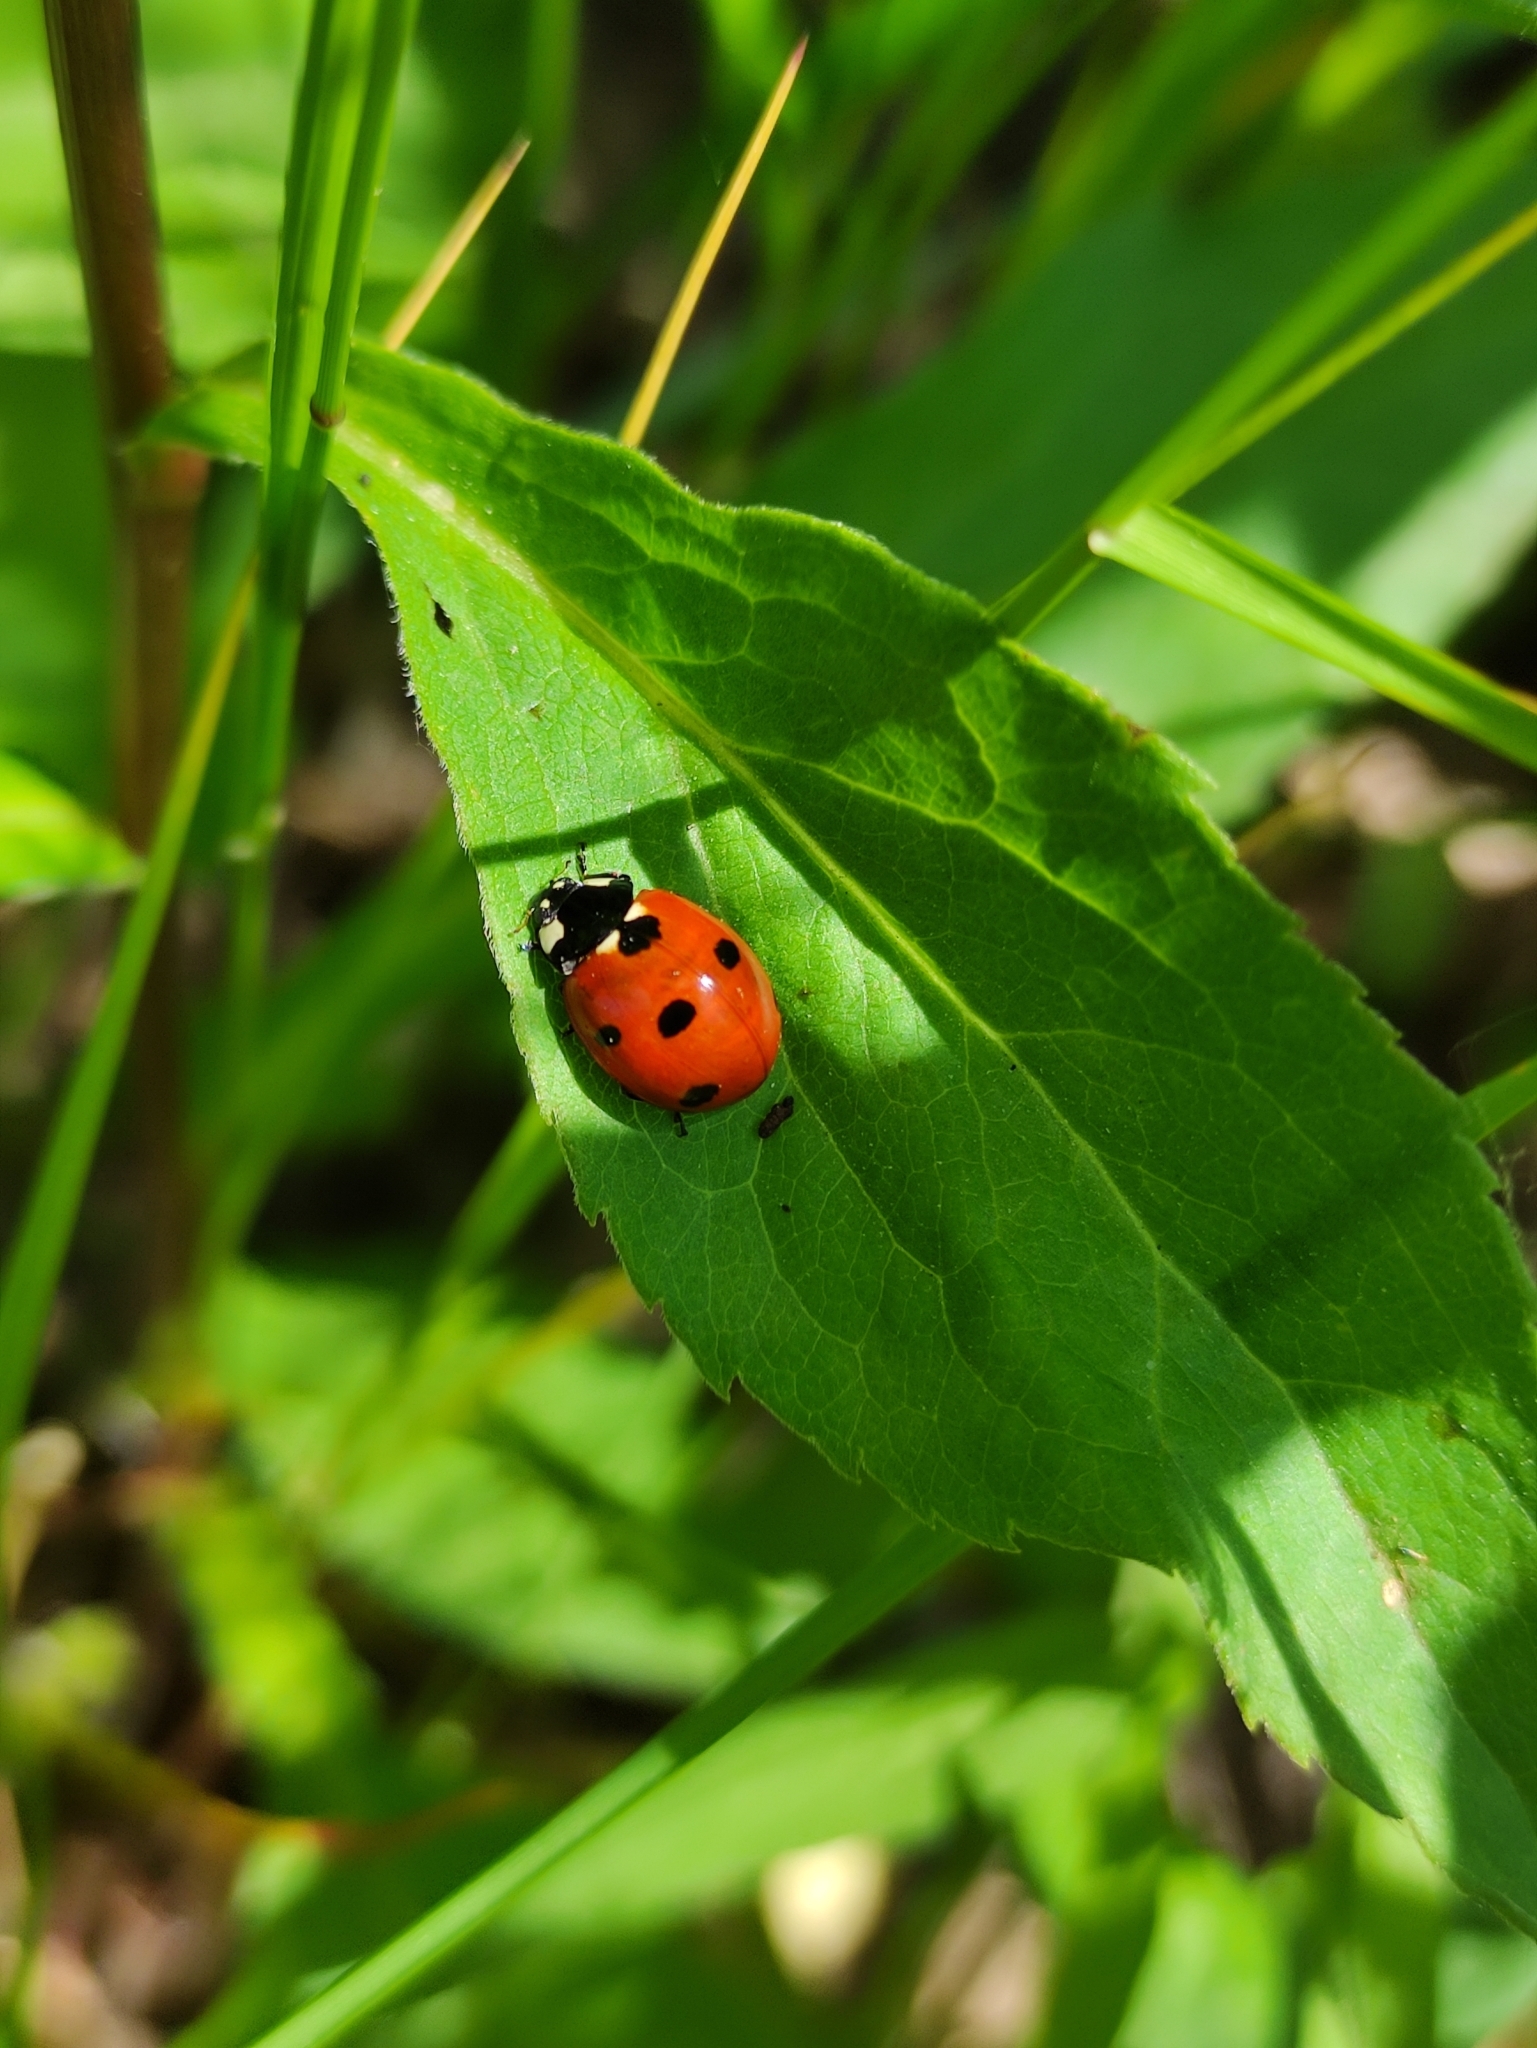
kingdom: Animalia
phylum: Arthropoda
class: Insecta
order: Coleoptera
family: Coccinellidae
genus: Coccinella
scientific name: Coccinella septempunctata
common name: Sevenspotted lady beetle
